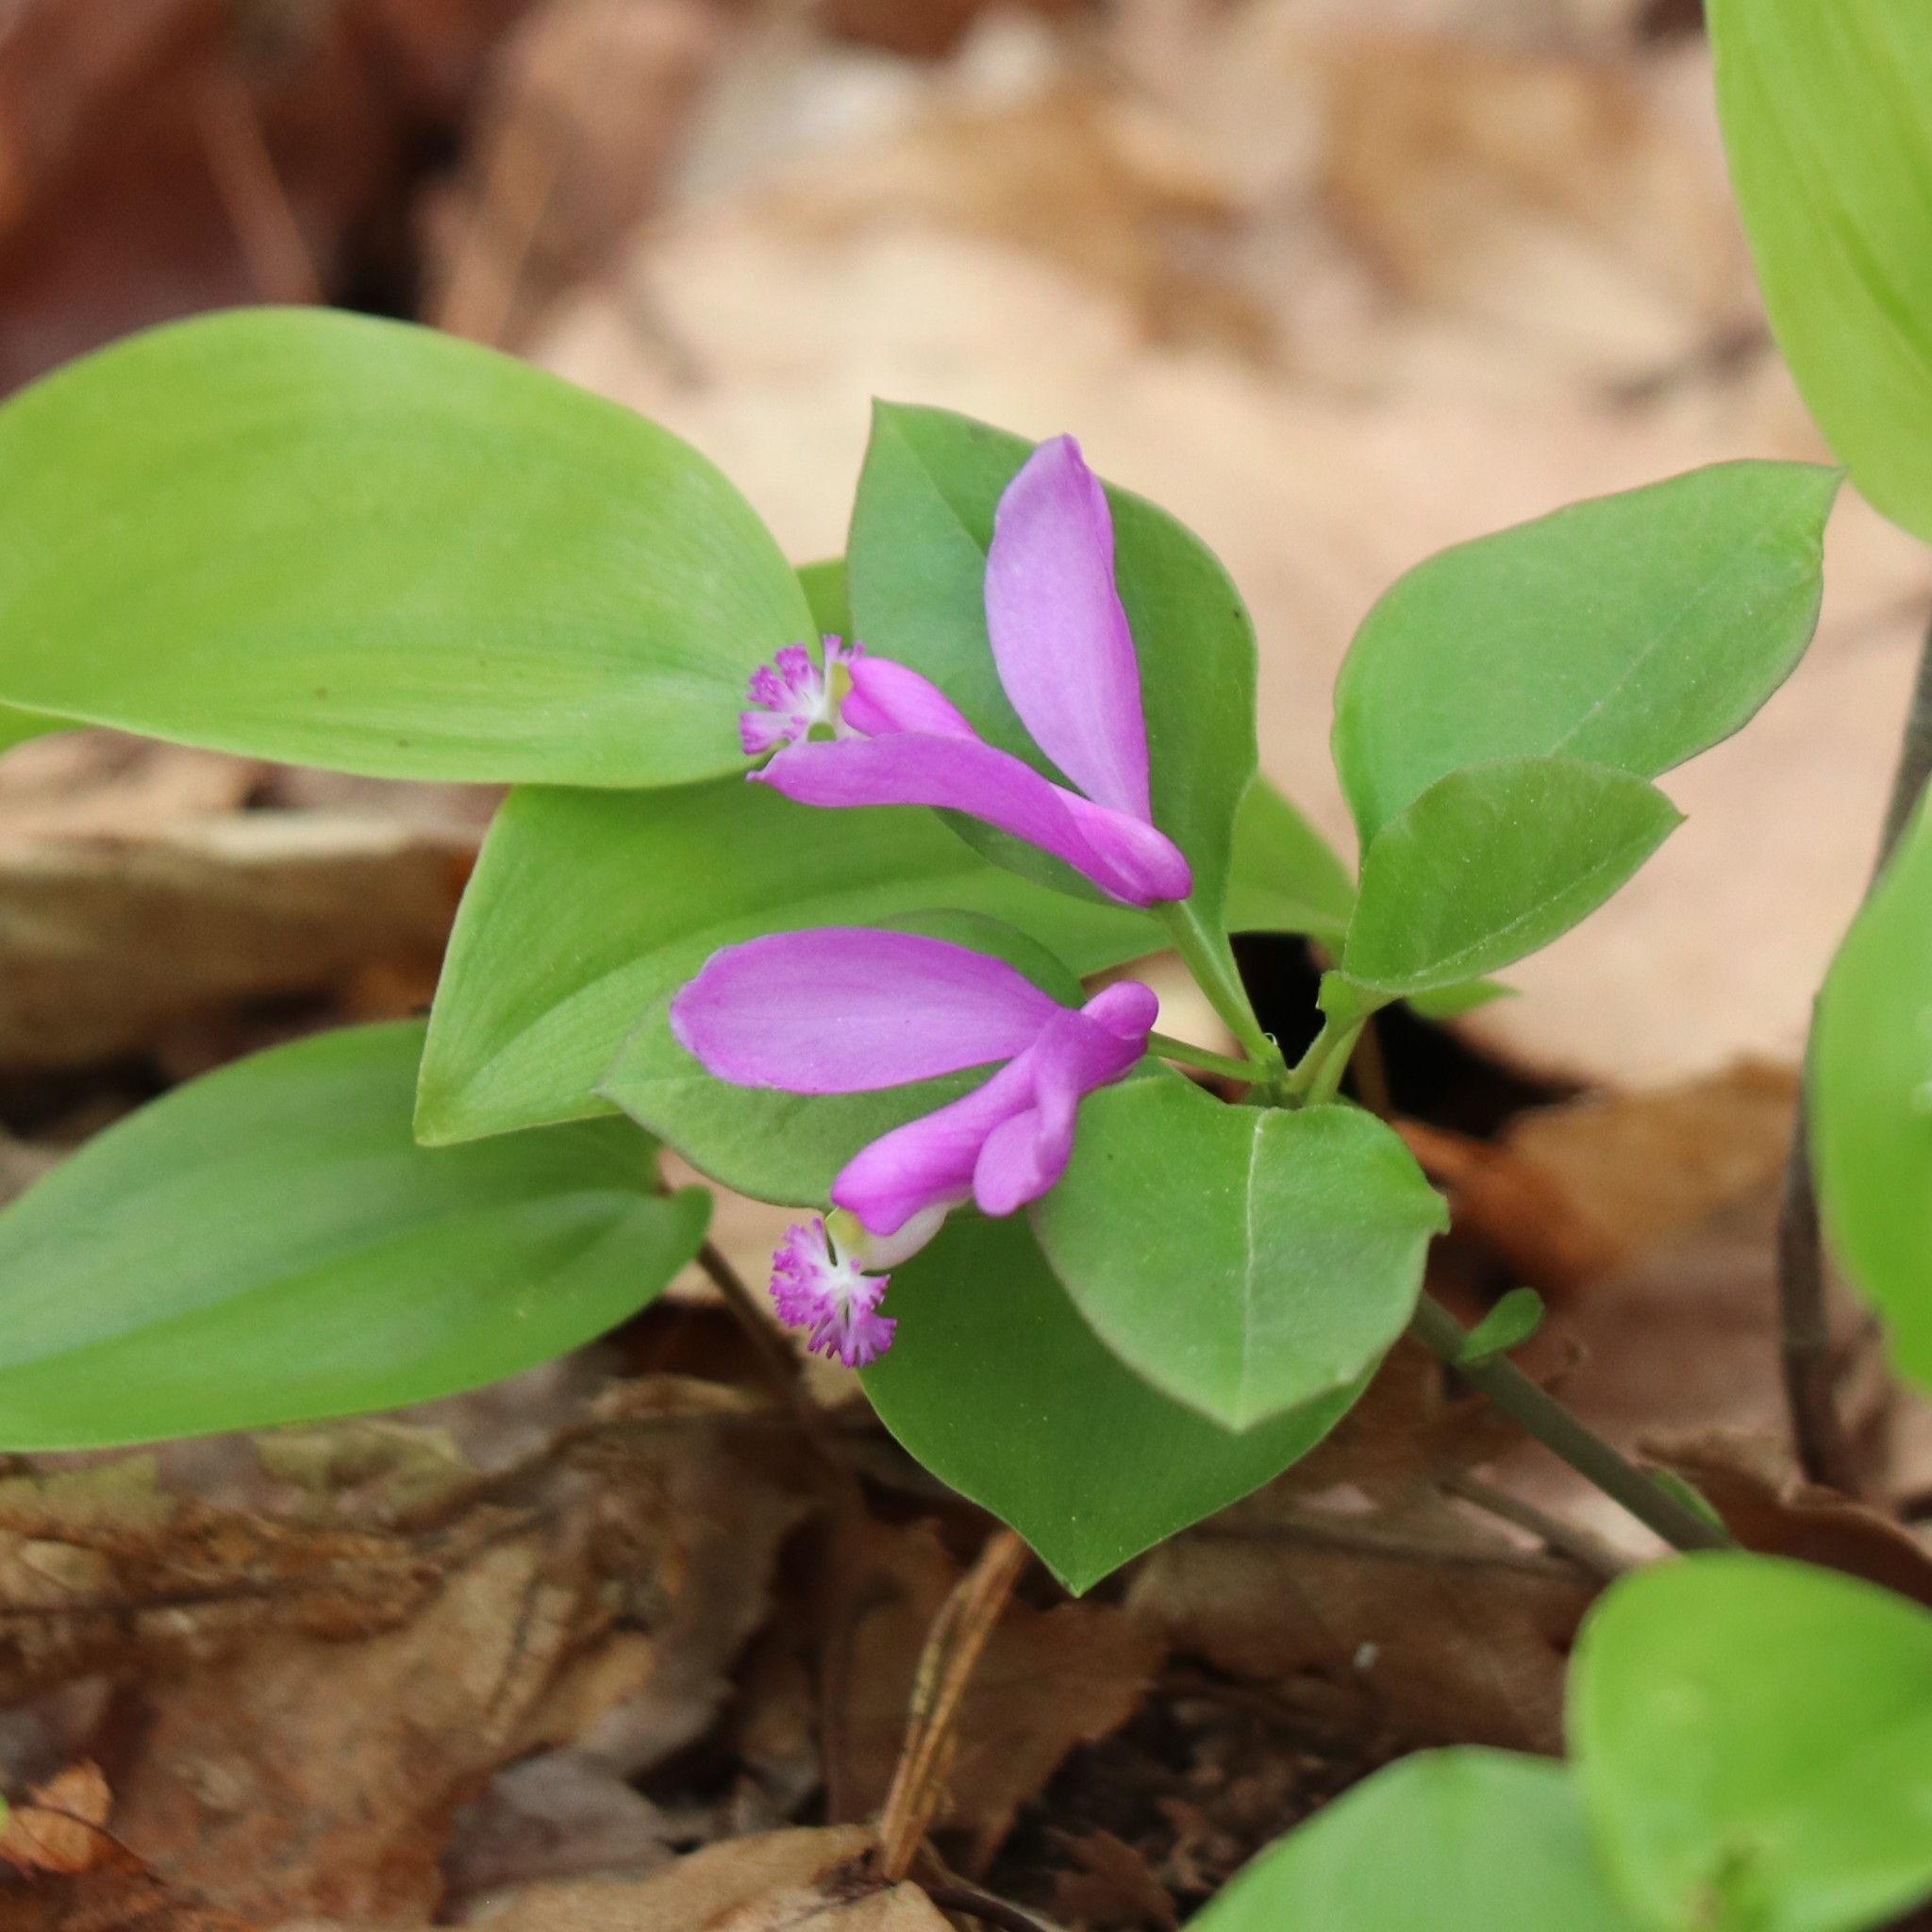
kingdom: Plantae
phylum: Tracheophyta
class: Magnoliopsida
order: Fabales
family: Polygalaceae
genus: Polygaloides
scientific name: Polygaloides paucifolia
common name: Bird-on-the-wing
